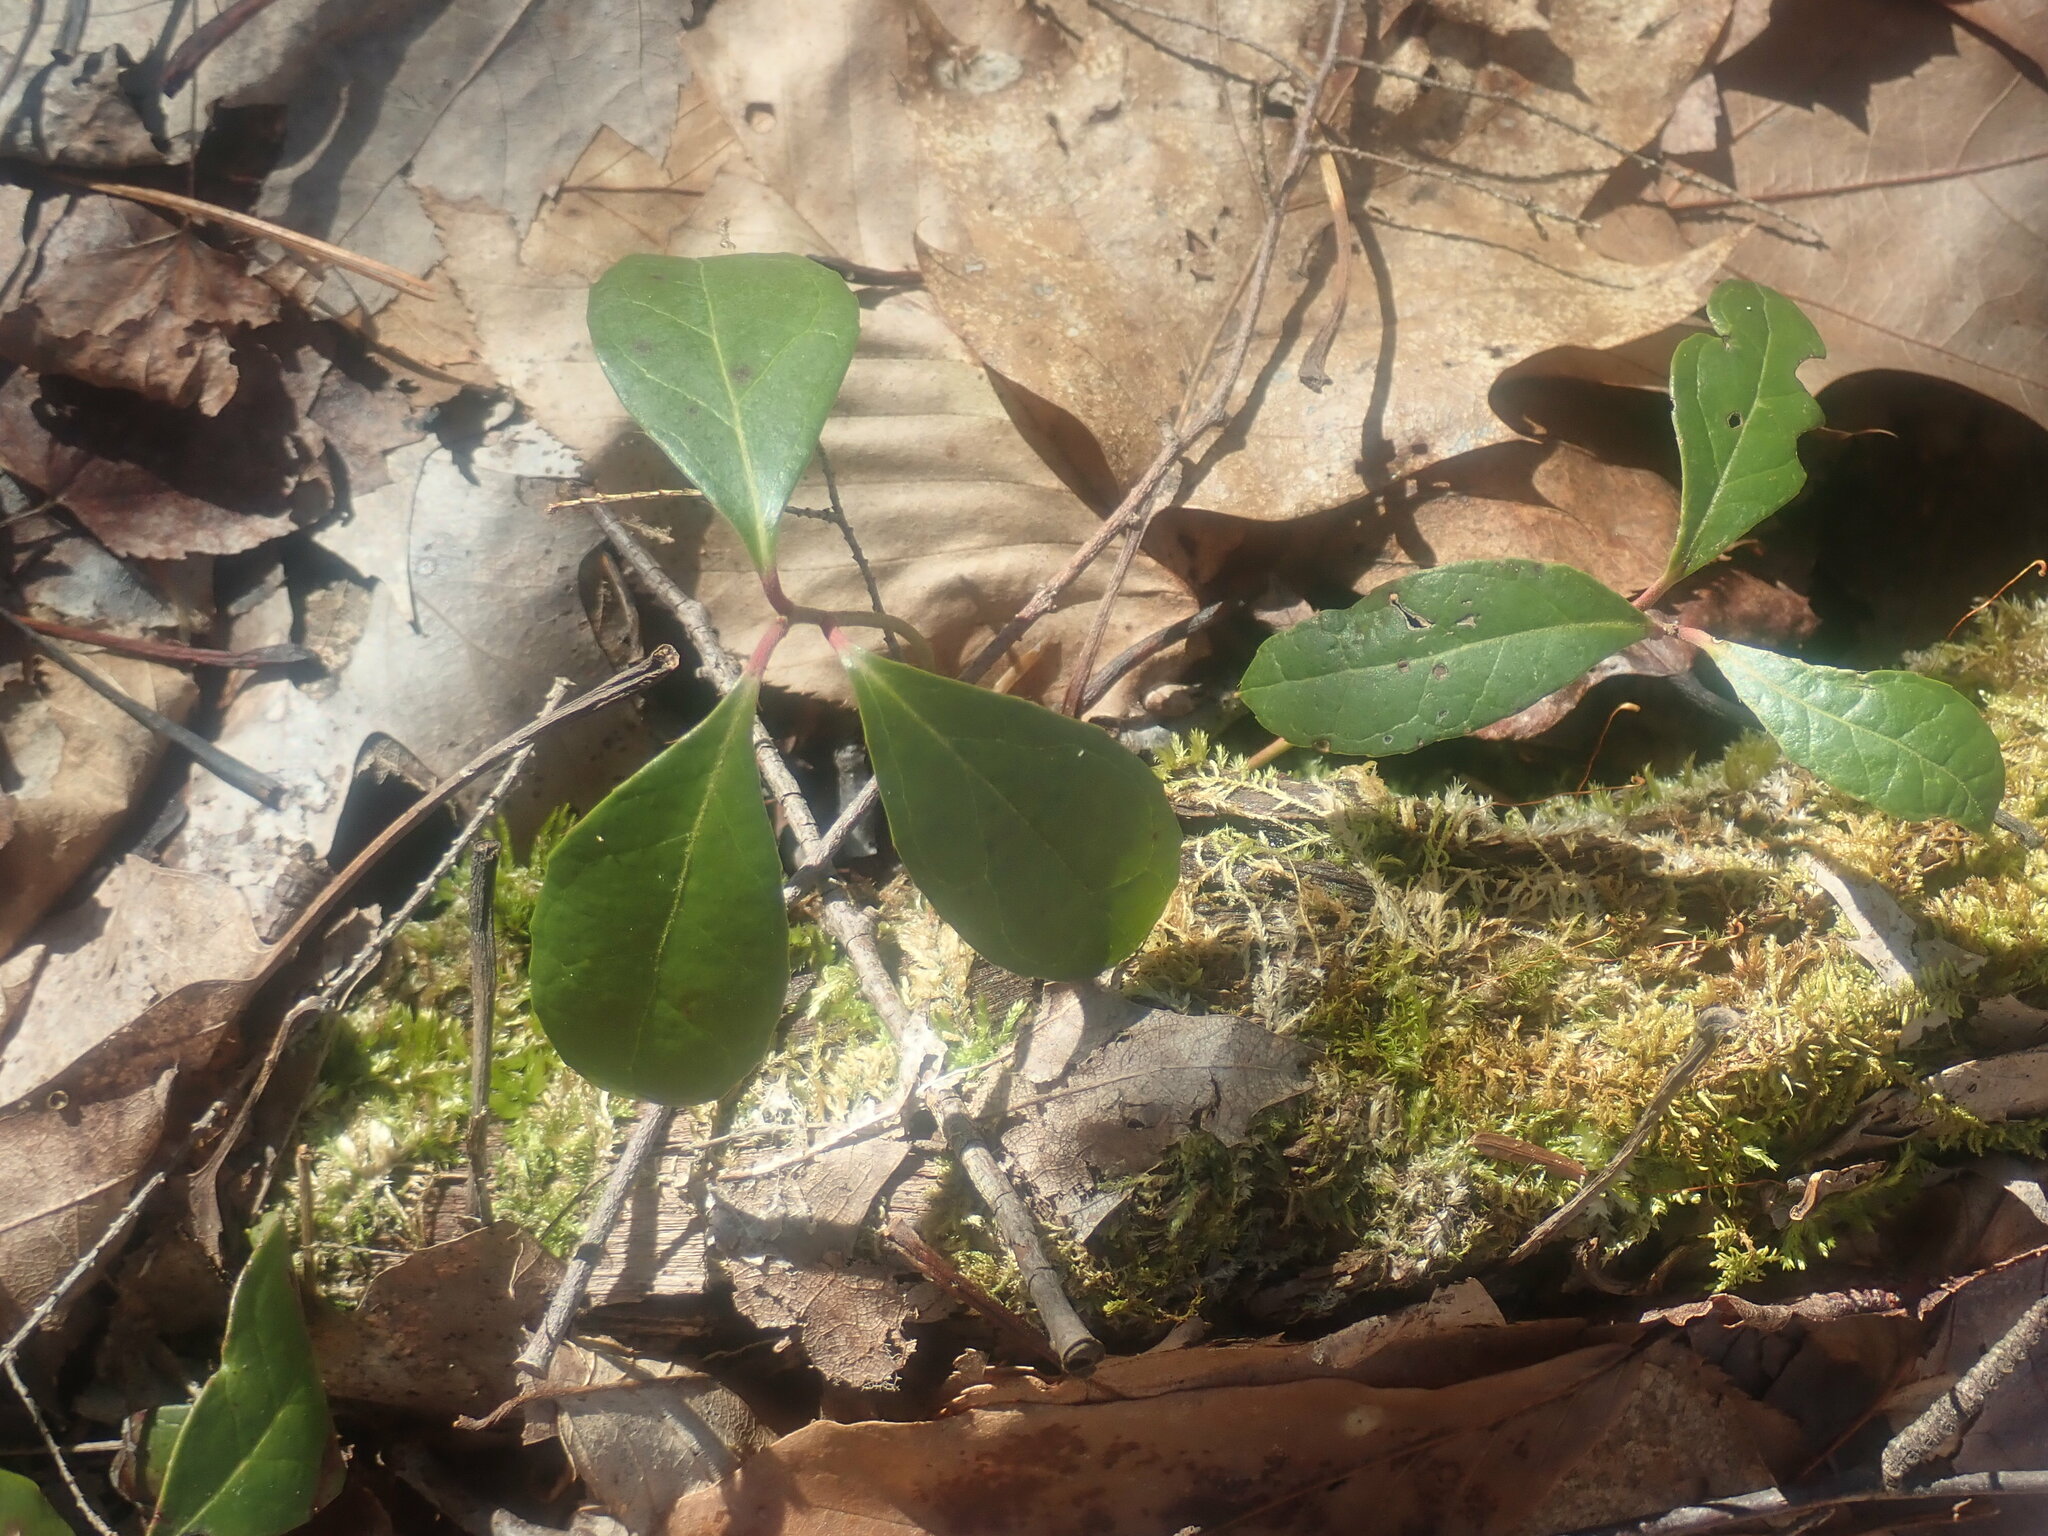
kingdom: Plantae
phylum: Tracheophyta
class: Magnoliopsida
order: Ericales
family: Ericaceae
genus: Gaultheria
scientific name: Gaultheria procumbens
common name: Checkerberry
